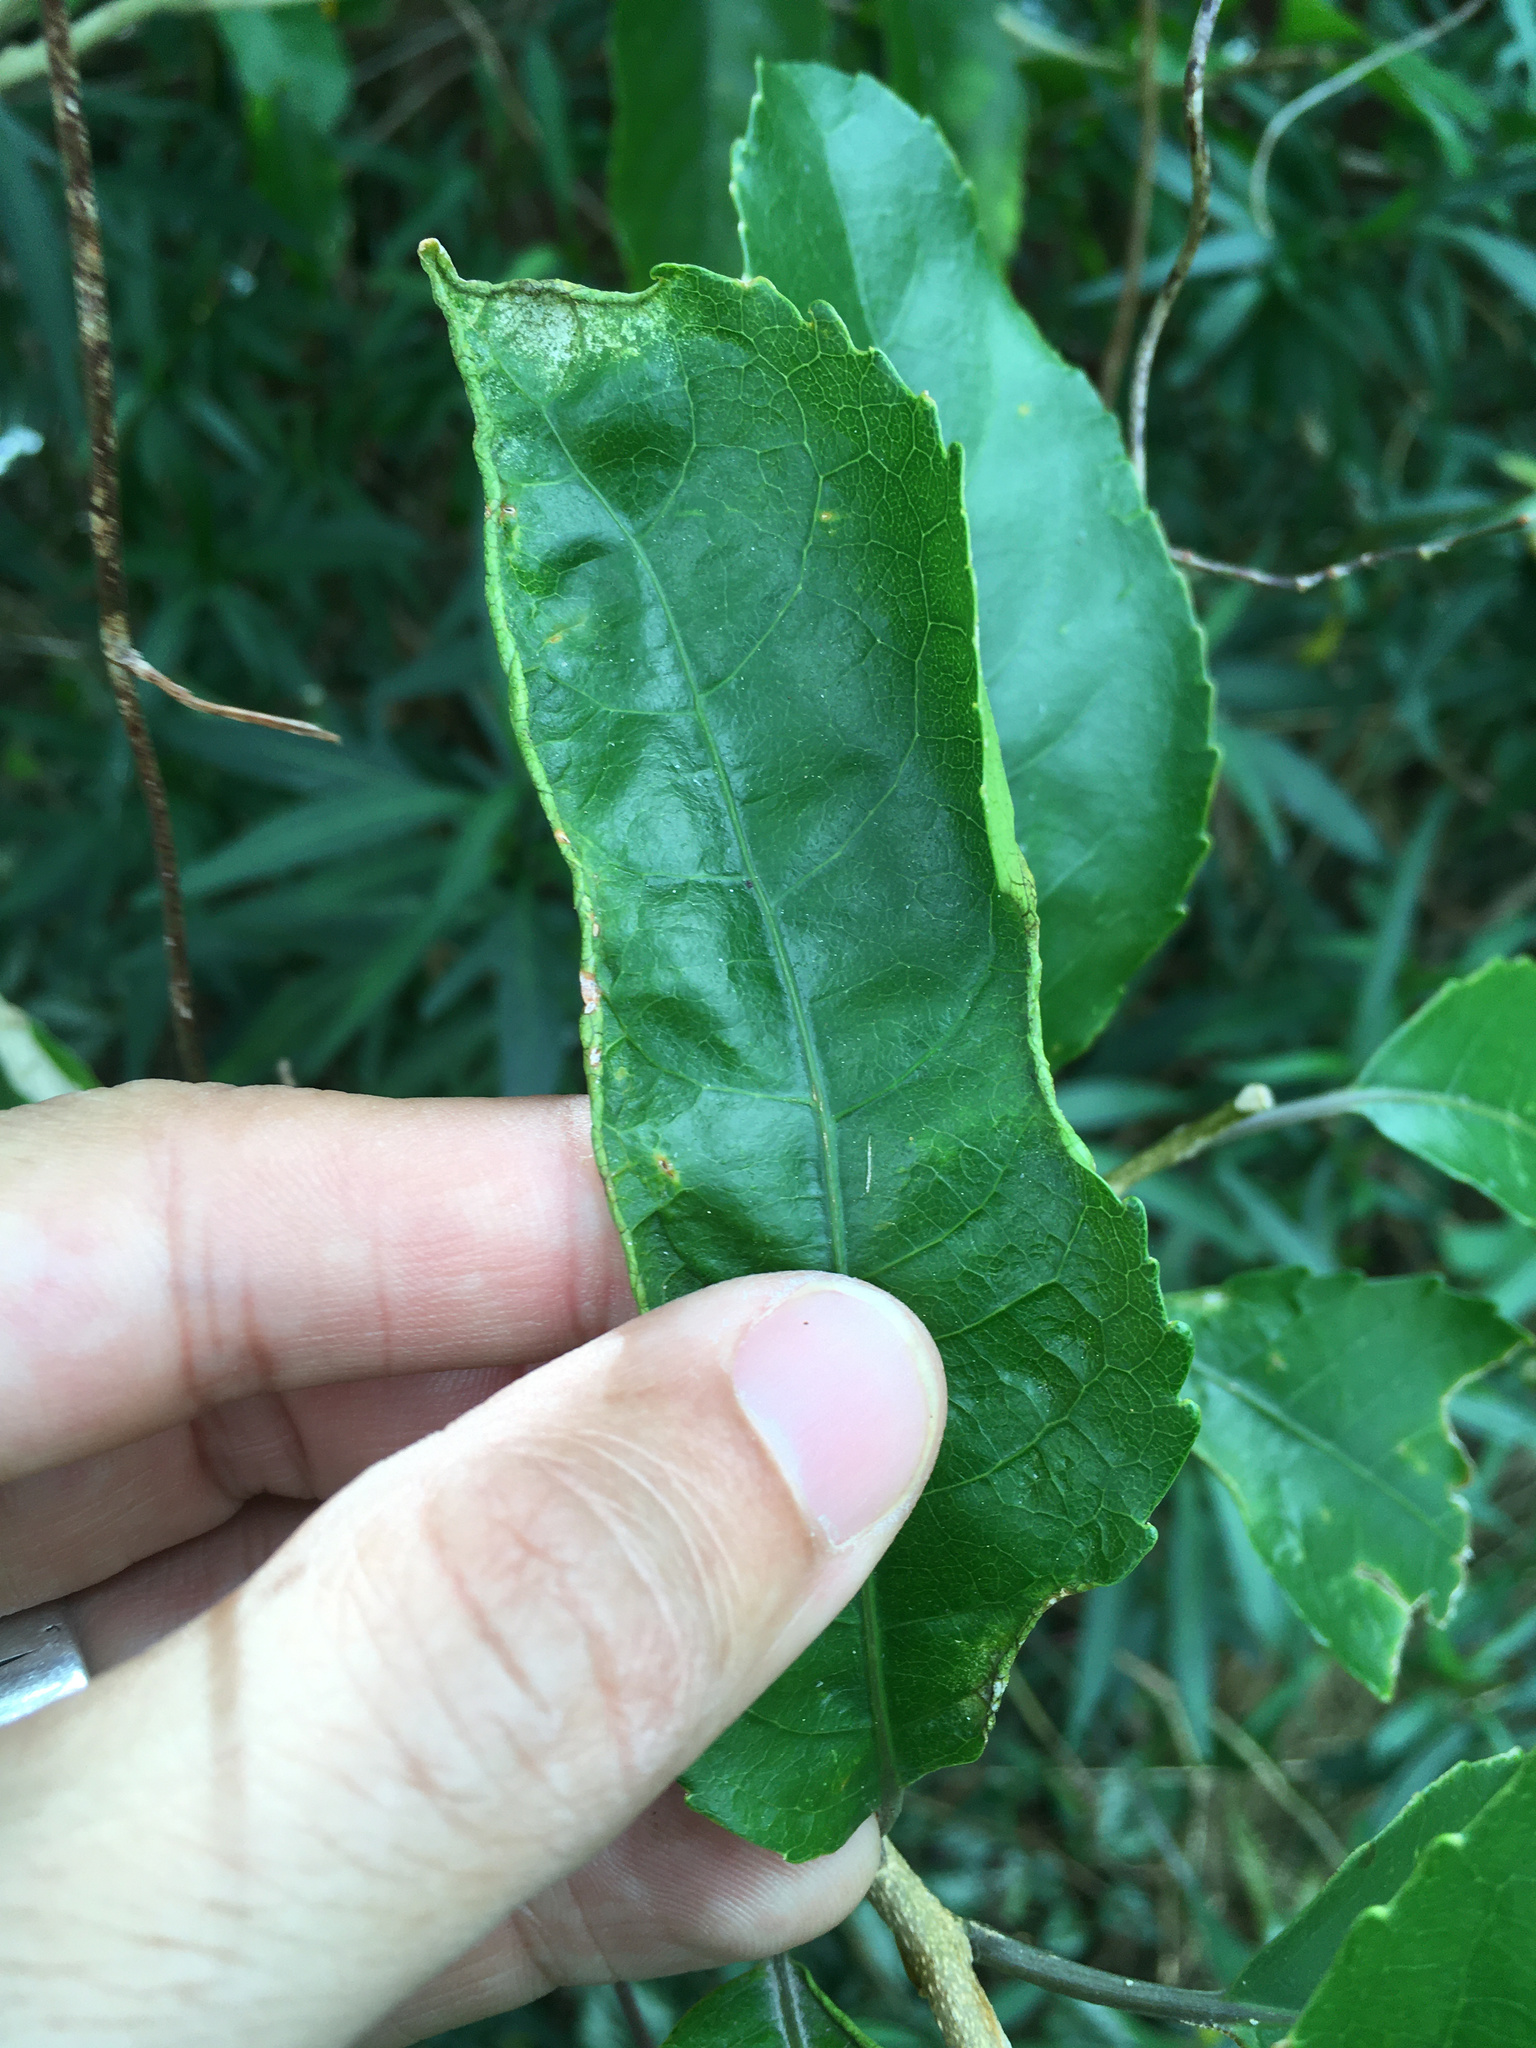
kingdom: Animalia
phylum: Arthropoda
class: Arachnida
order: Trombidiformes
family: Eriophyidae
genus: Aceria
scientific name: Aceria
